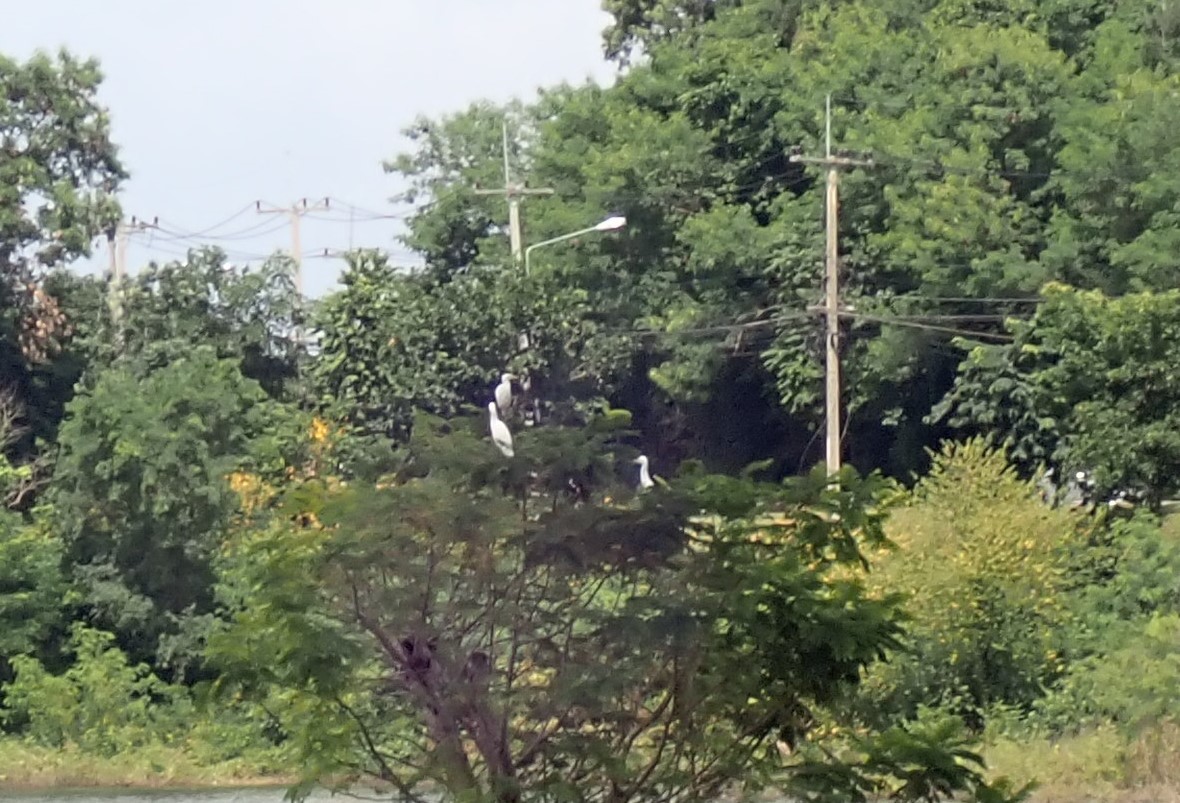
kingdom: Animalia
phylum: Chordata
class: Aves
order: Pelecaniformes
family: Ardeidae
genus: Bubulcus
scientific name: Bubulcus coromandus
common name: Eastern cattle egret
